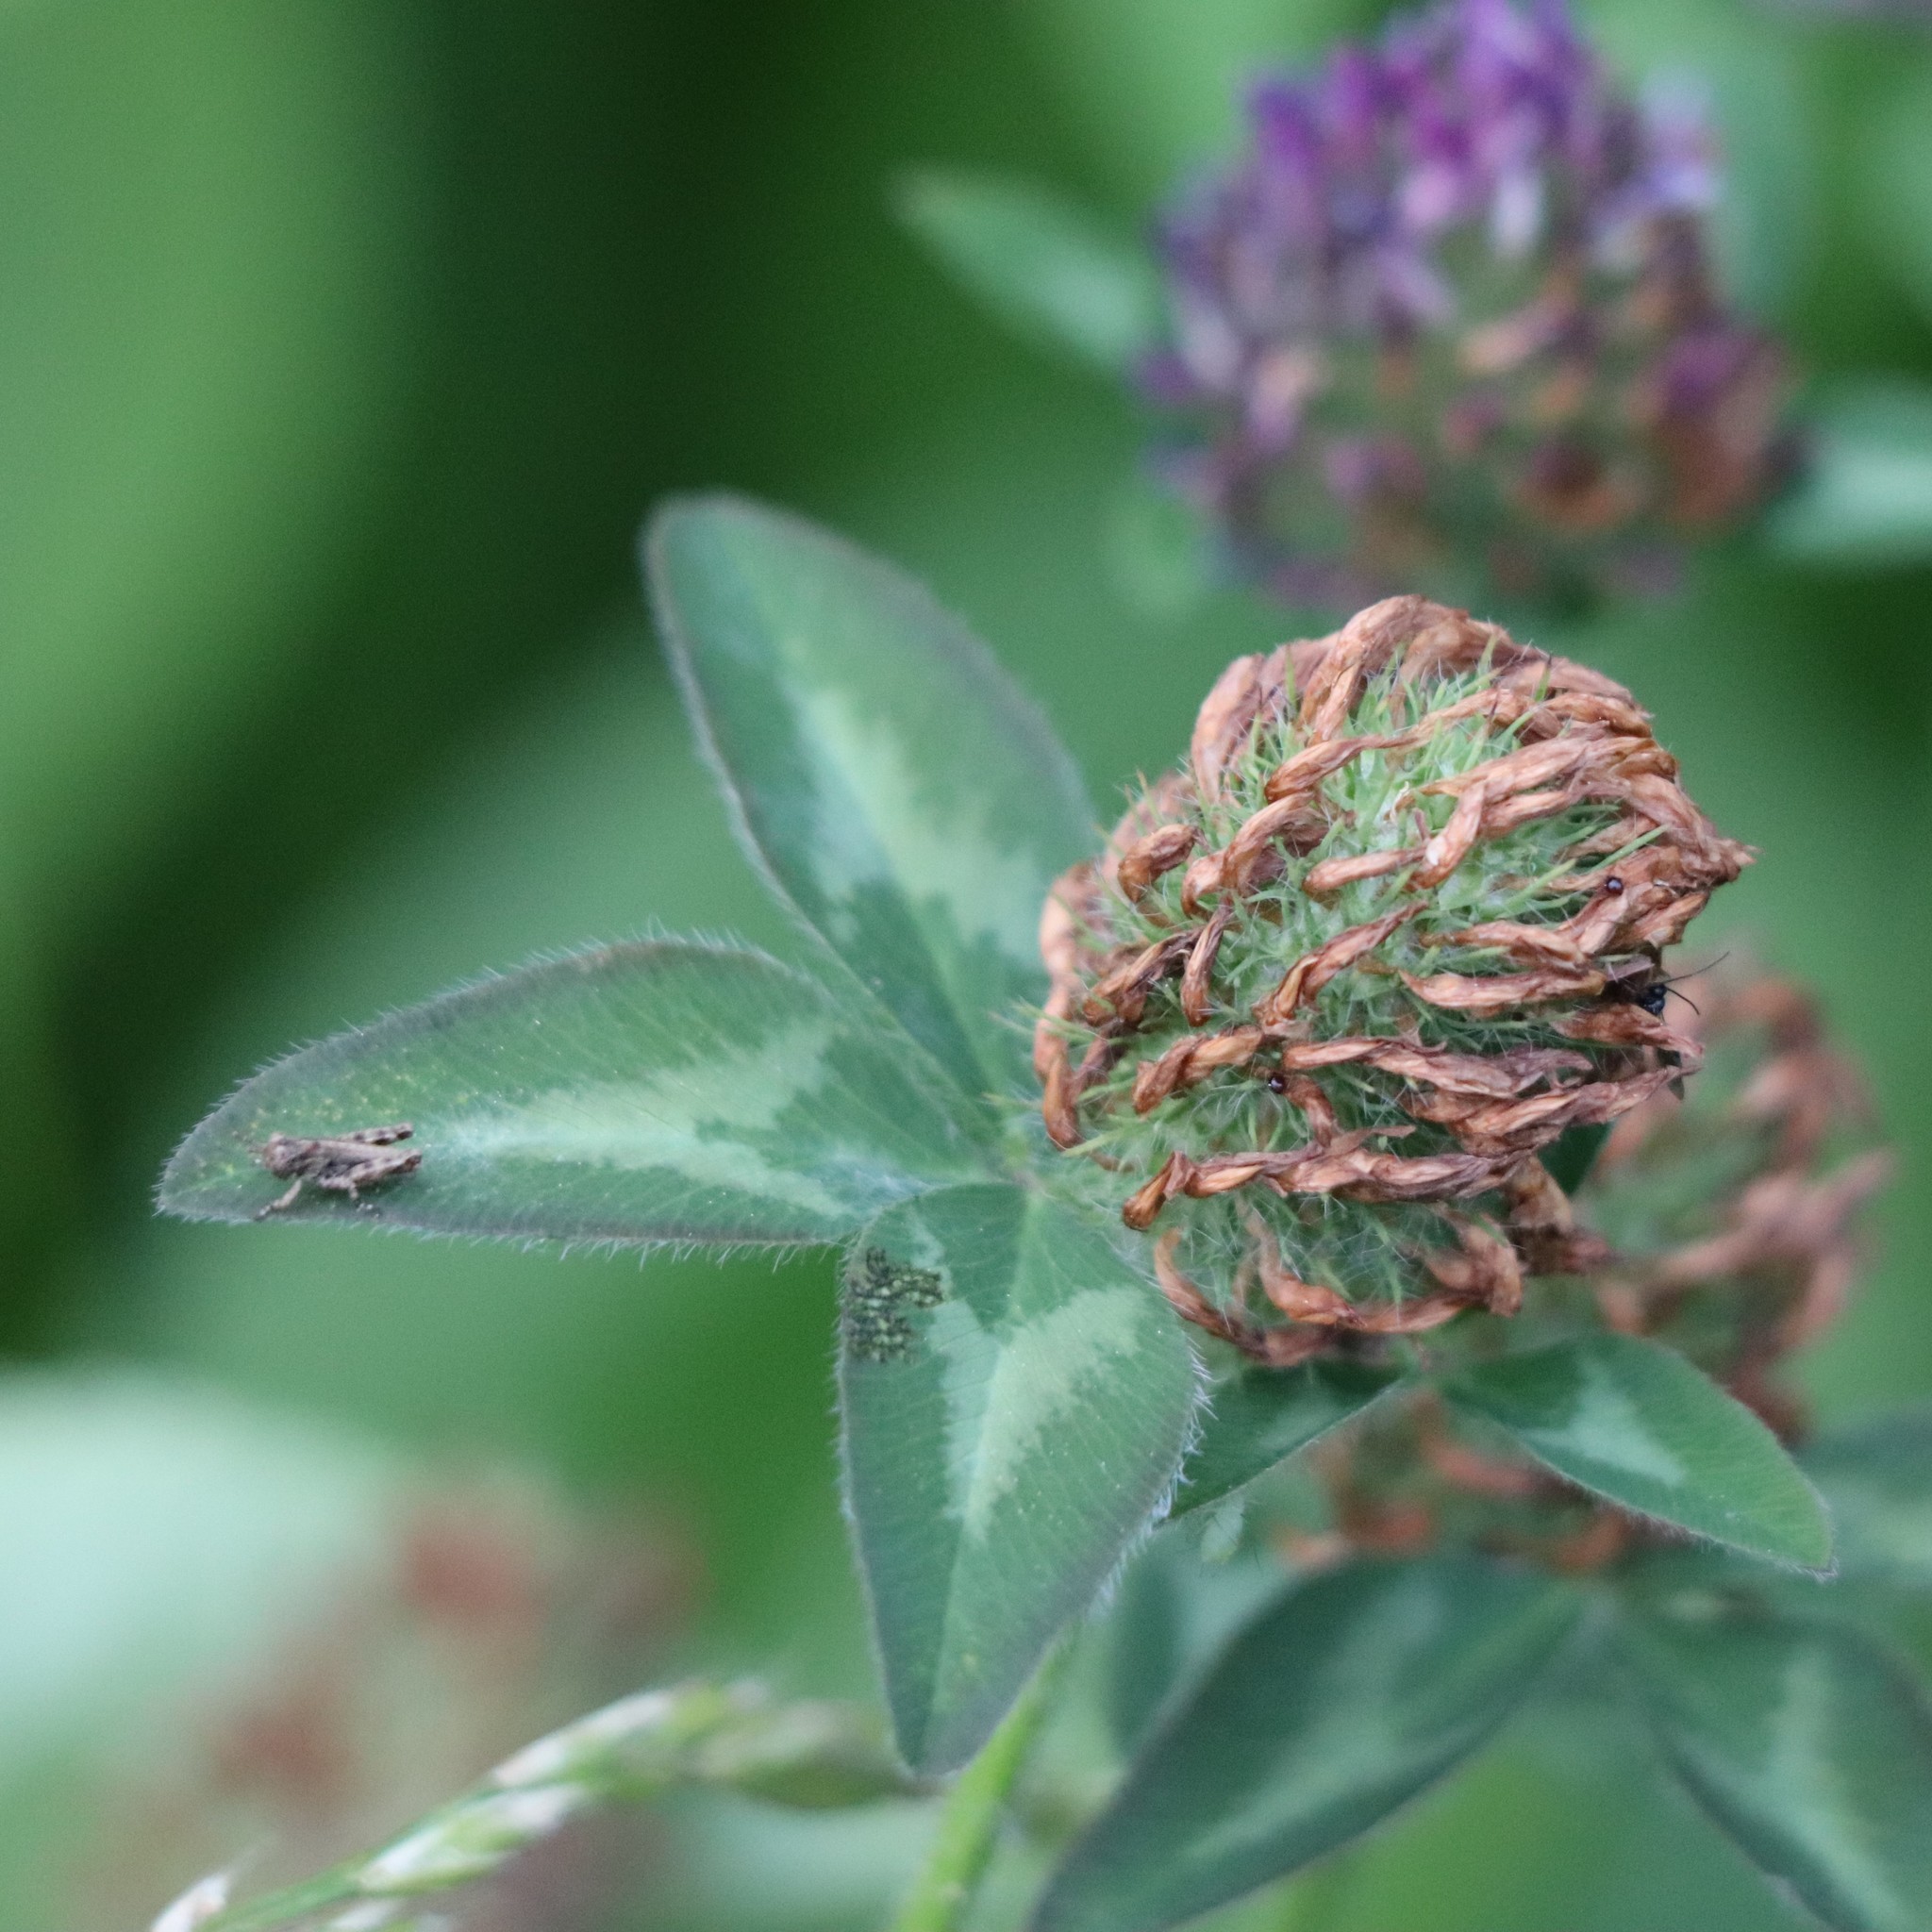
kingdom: Plantae
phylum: Tracheophyta
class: Magnoliopsida
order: Fabales
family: Fabaceae
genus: Trifolium
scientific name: Trifolium pratense
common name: Red clover
